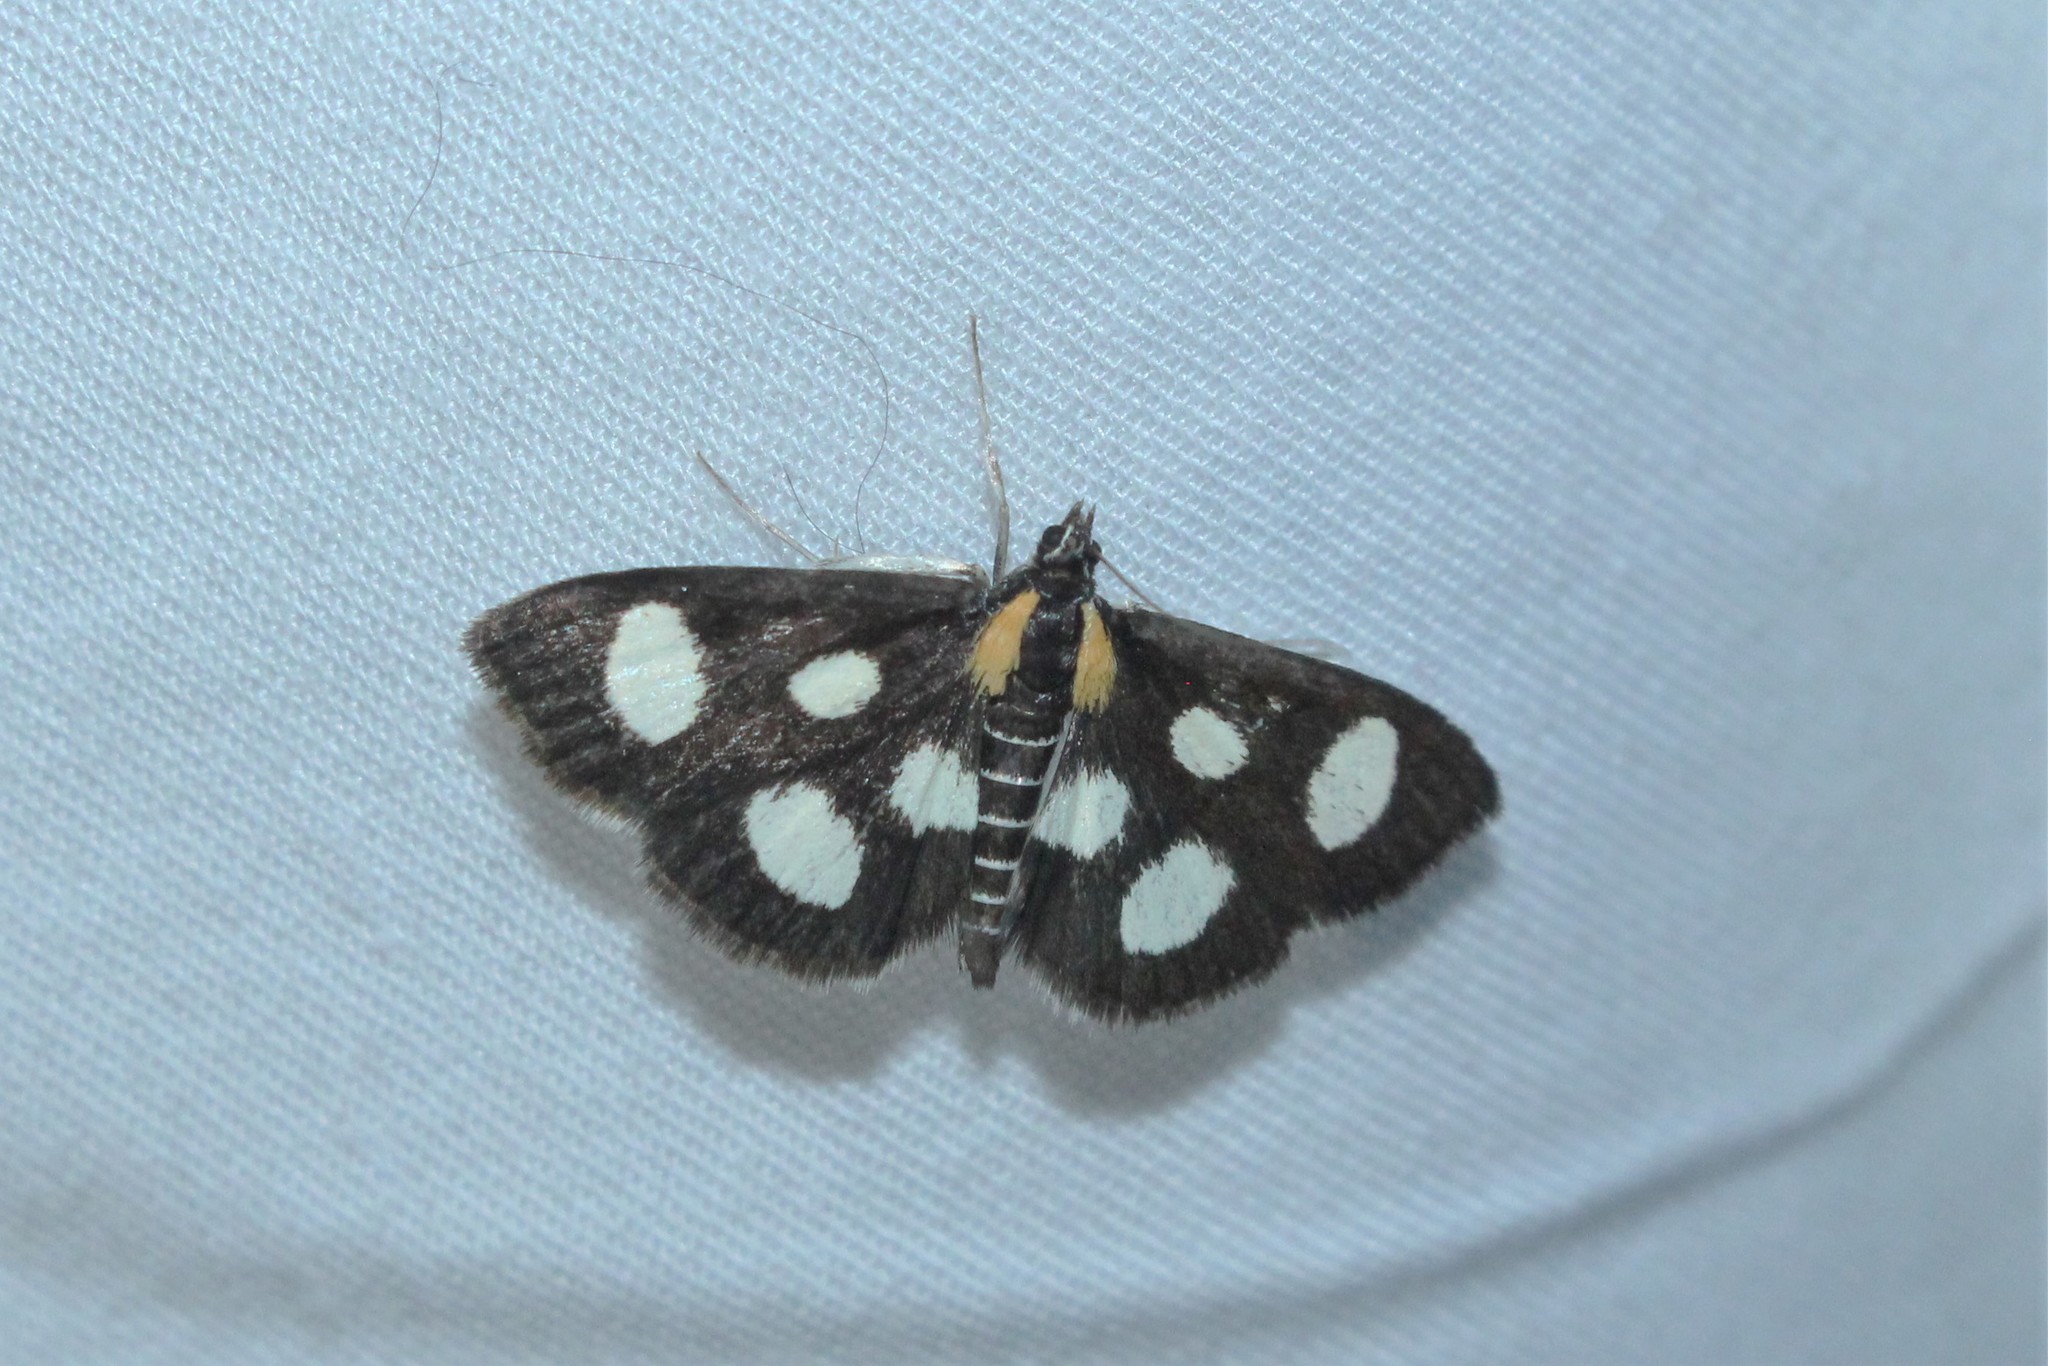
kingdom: Animalia
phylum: Arthropoda
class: Insecta
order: Lepidoptera
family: Crambidae
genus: Anania
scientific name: Anania funebris
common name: White-spotted sable moth
